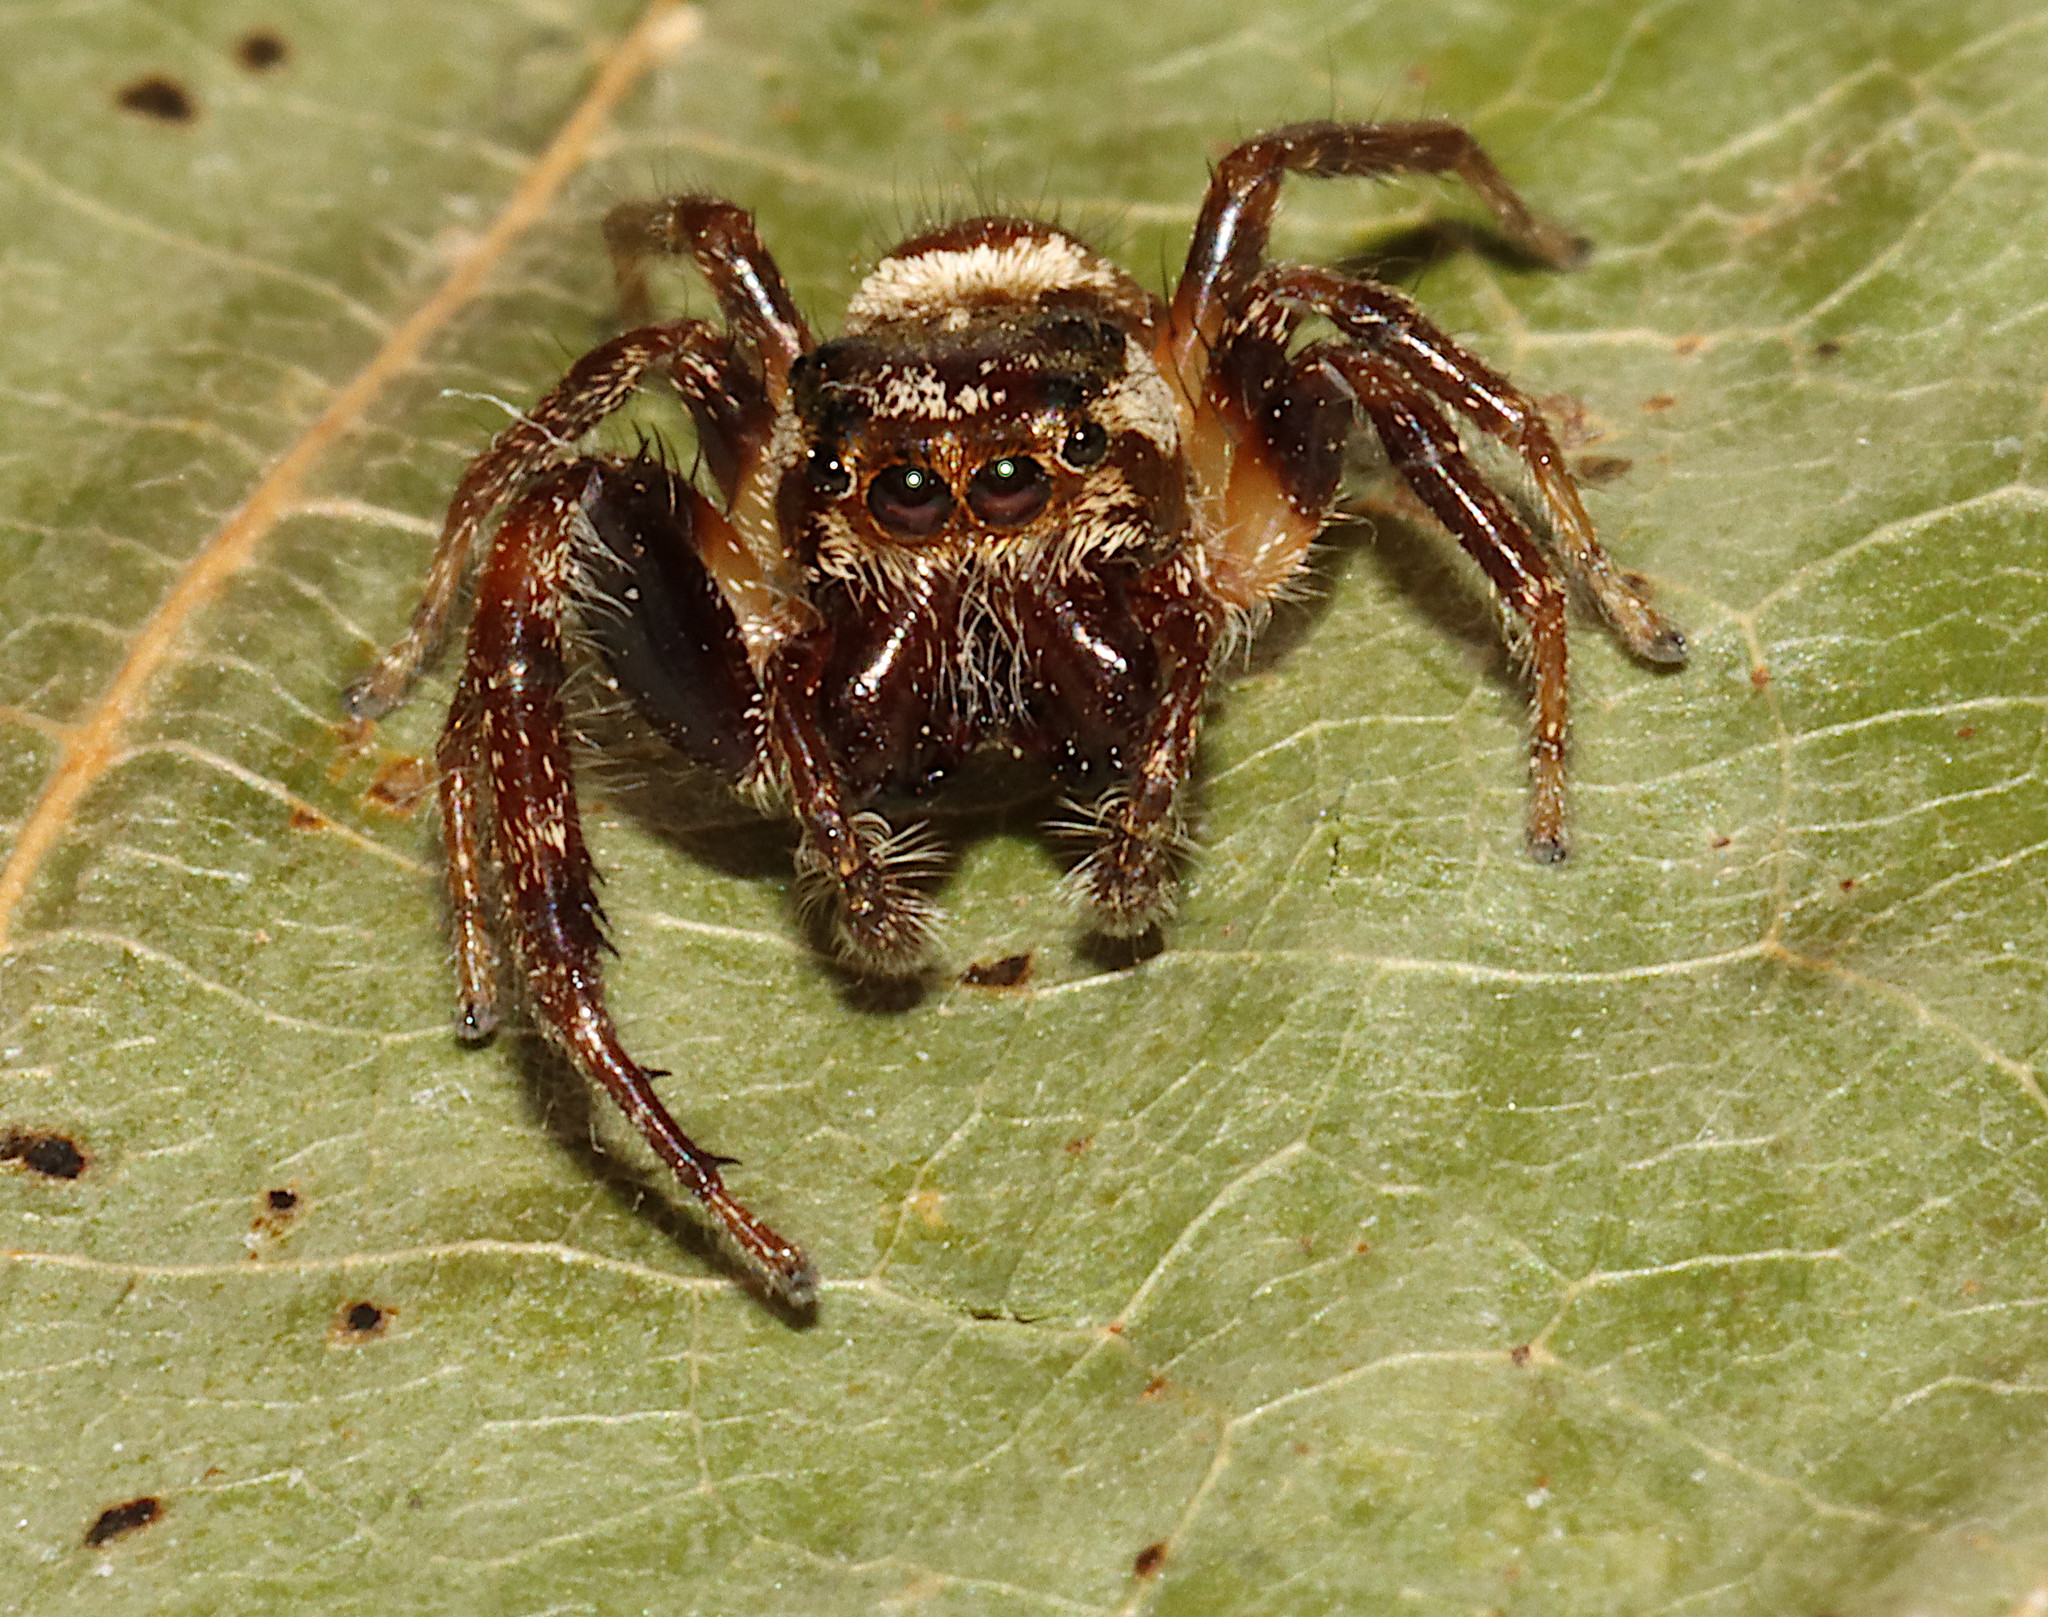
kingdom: Animalia
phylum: Arthropoda
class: Arachnida
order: Araneae
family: Salticidae
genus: Eris
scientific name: Eris militaris
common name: Bronze jumper
